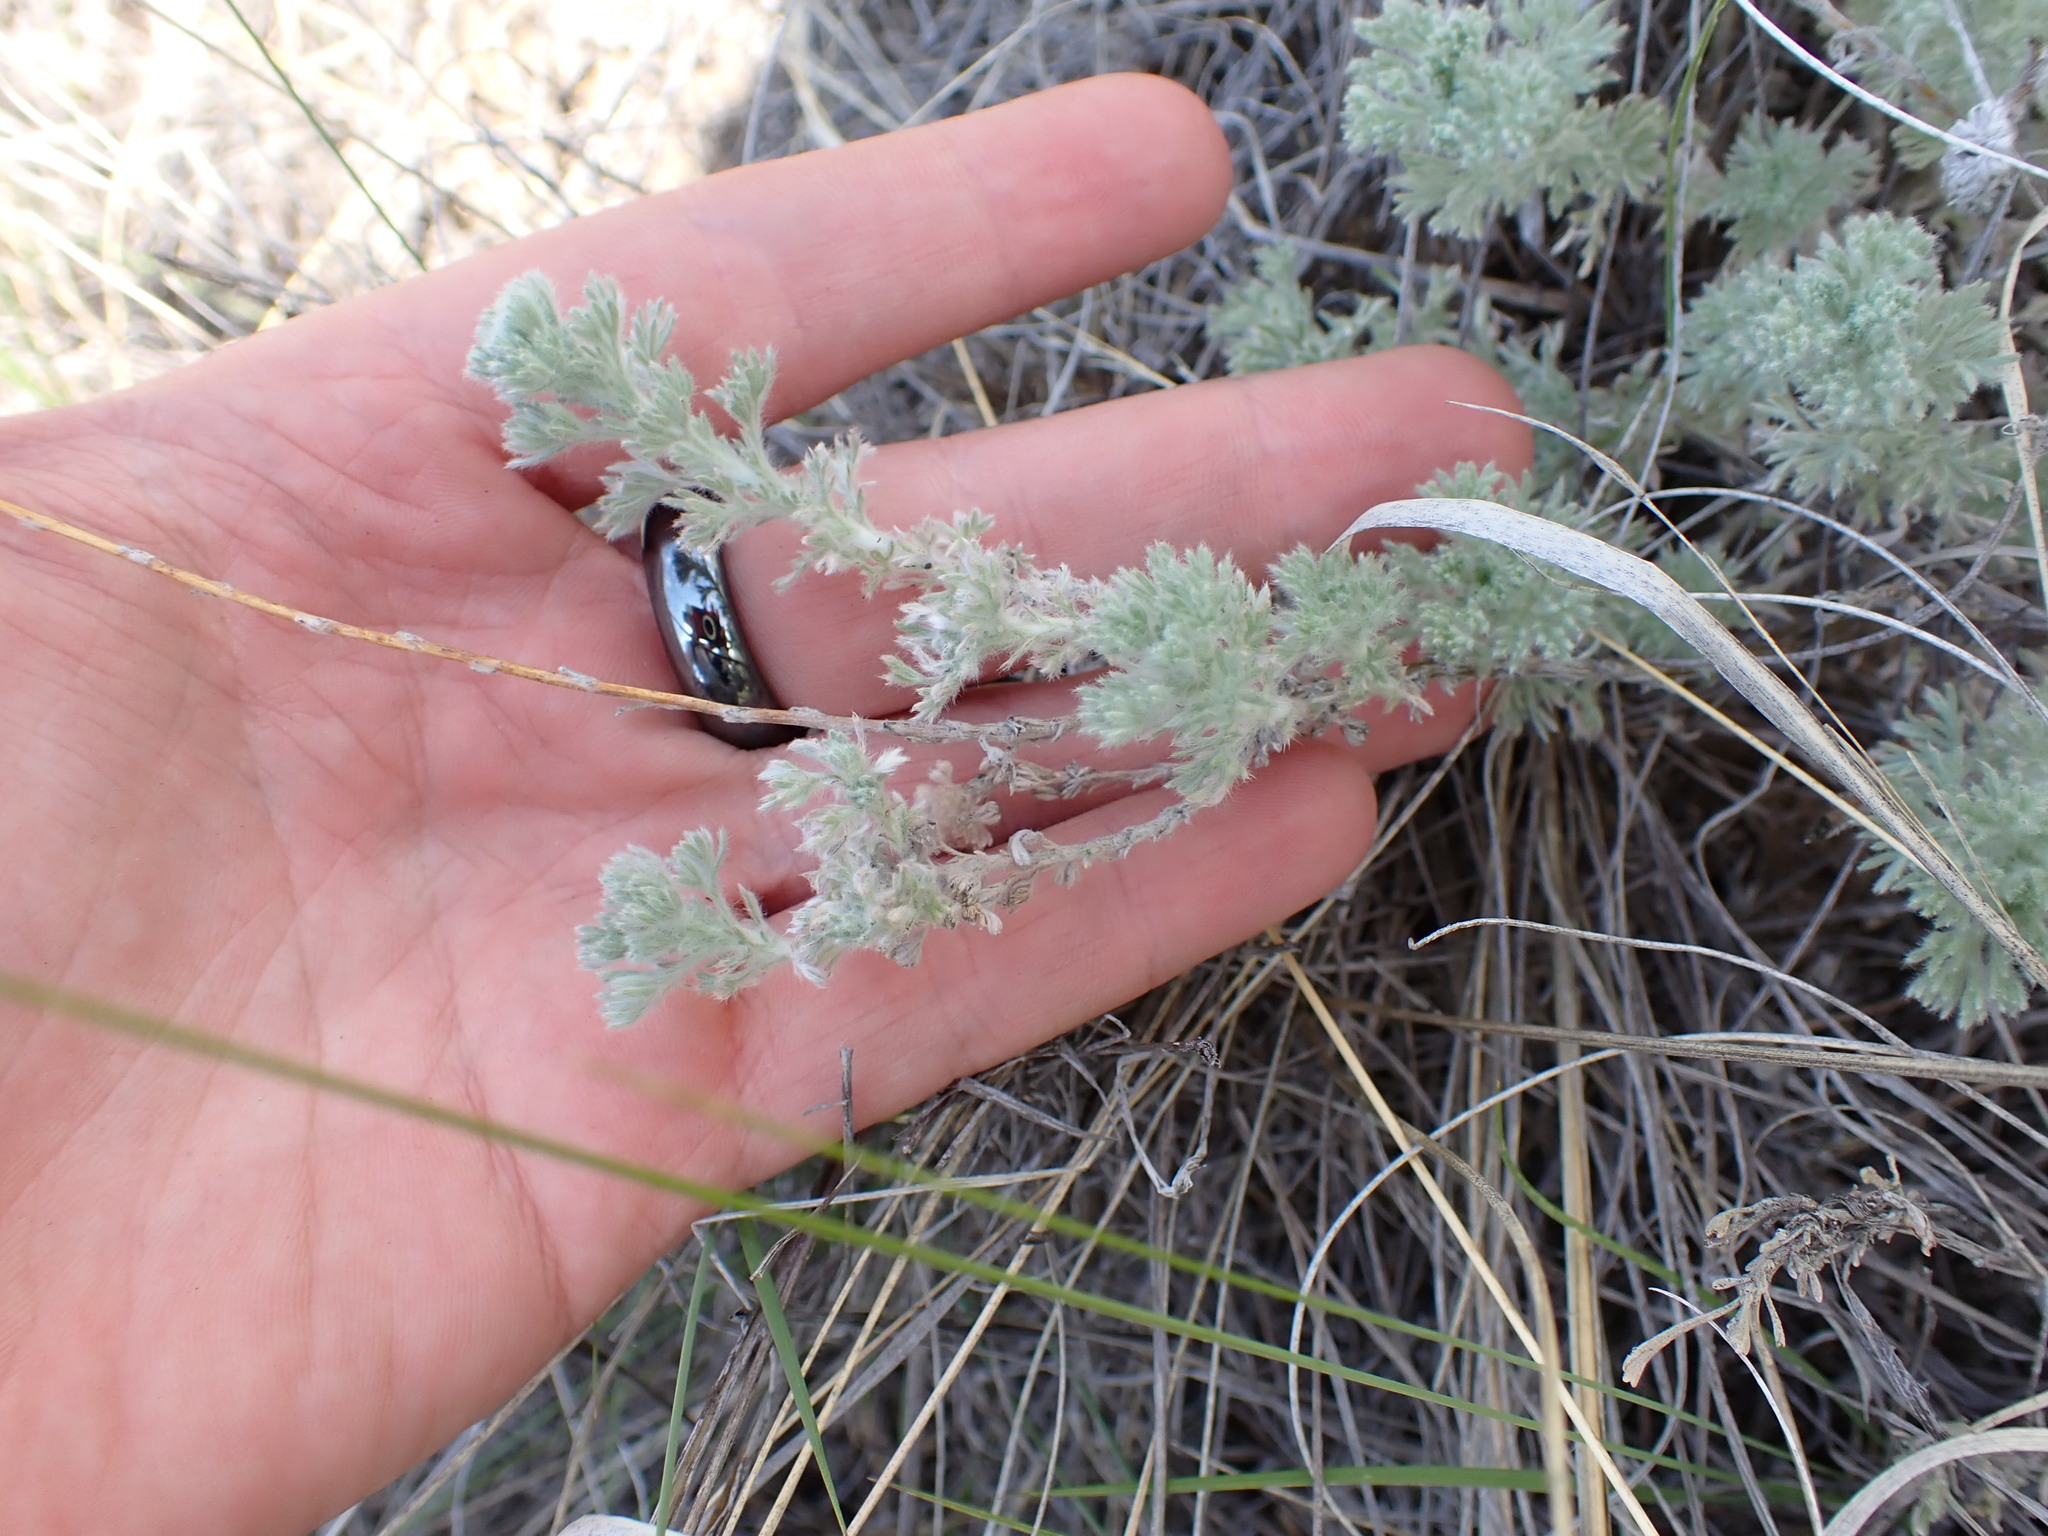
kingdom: Plantae
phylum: Tracheophyta
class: Magnoliopsida
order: Asterales
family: Asteraceae
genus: Artemisia
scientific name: Artemisia frigida
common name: Prairie sagewort
